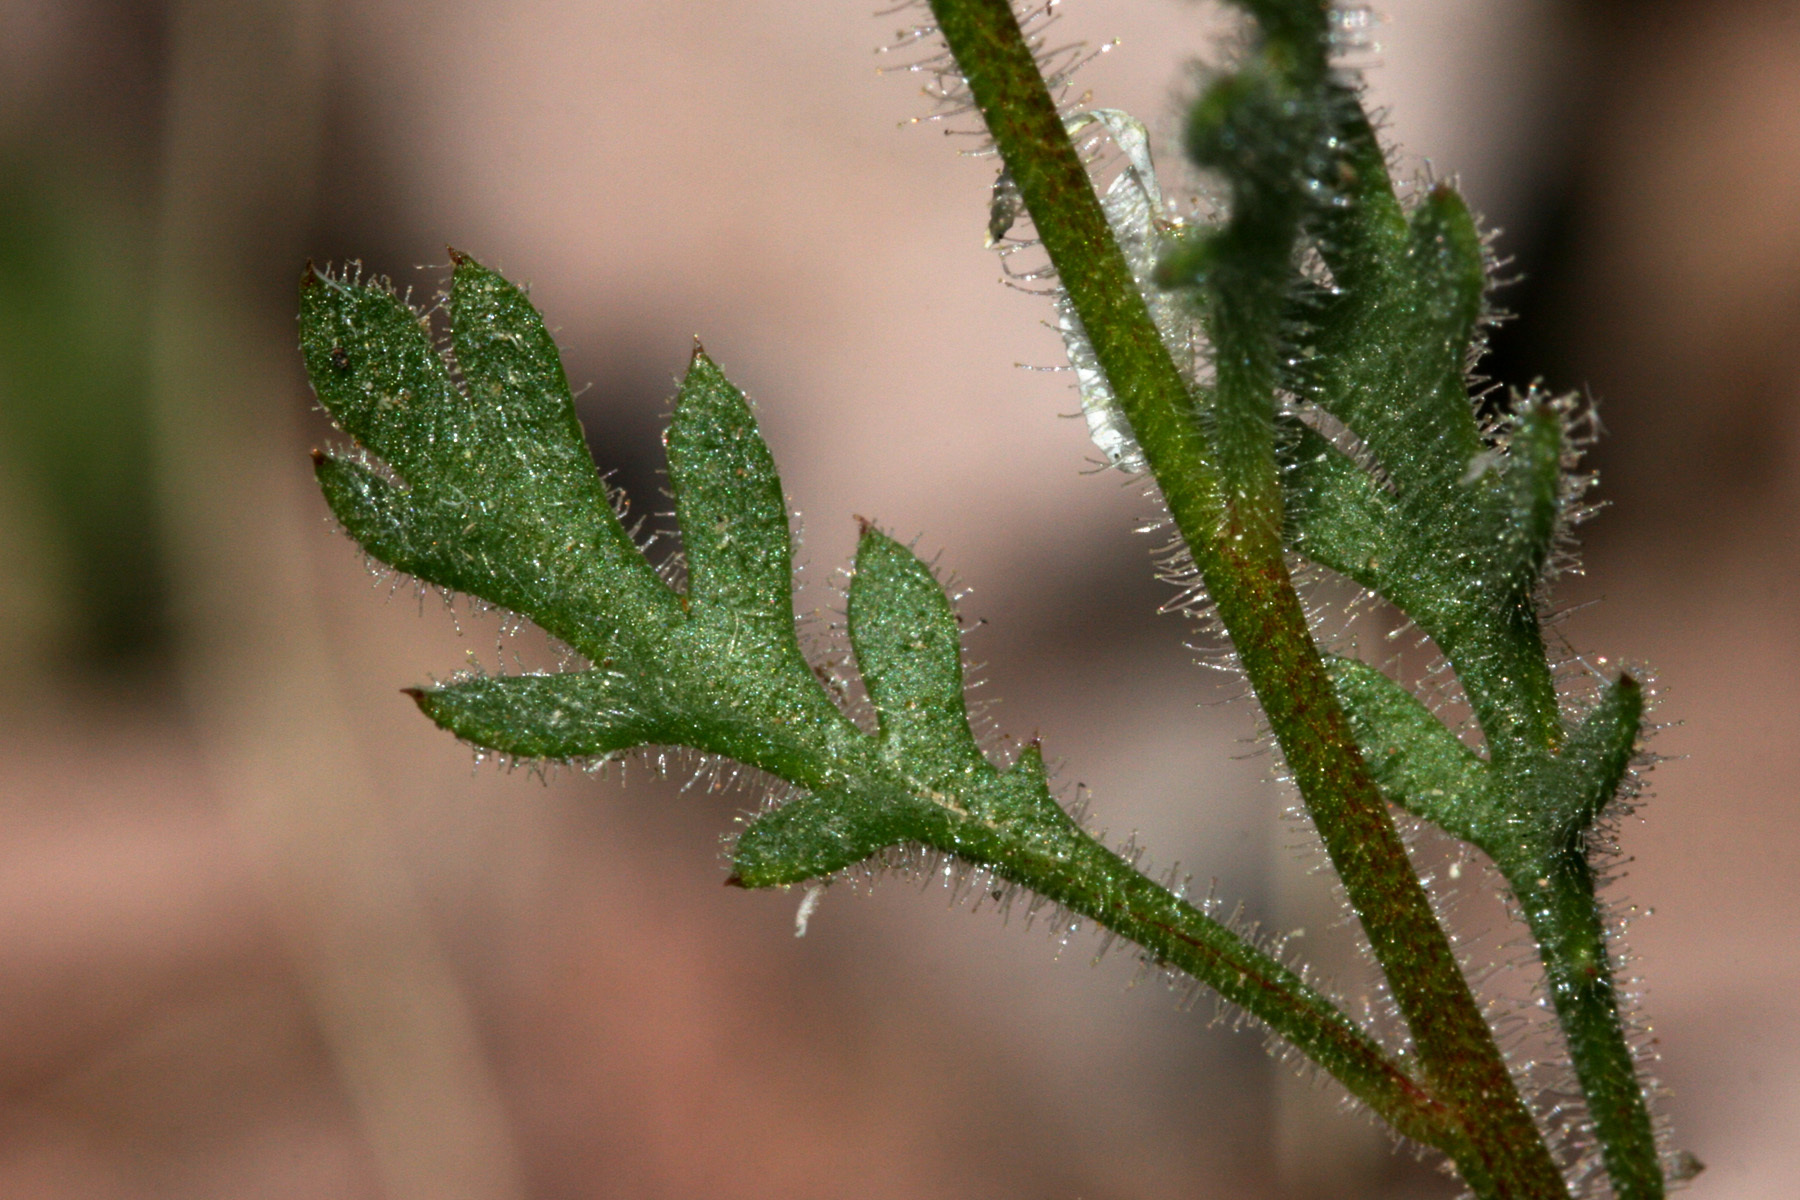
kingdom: Plantae
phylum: Tracheophyta
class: Magnoliopsida
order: Ericales
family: Polemoniaceae
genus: Gilia
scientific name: Gilia scopulorum
